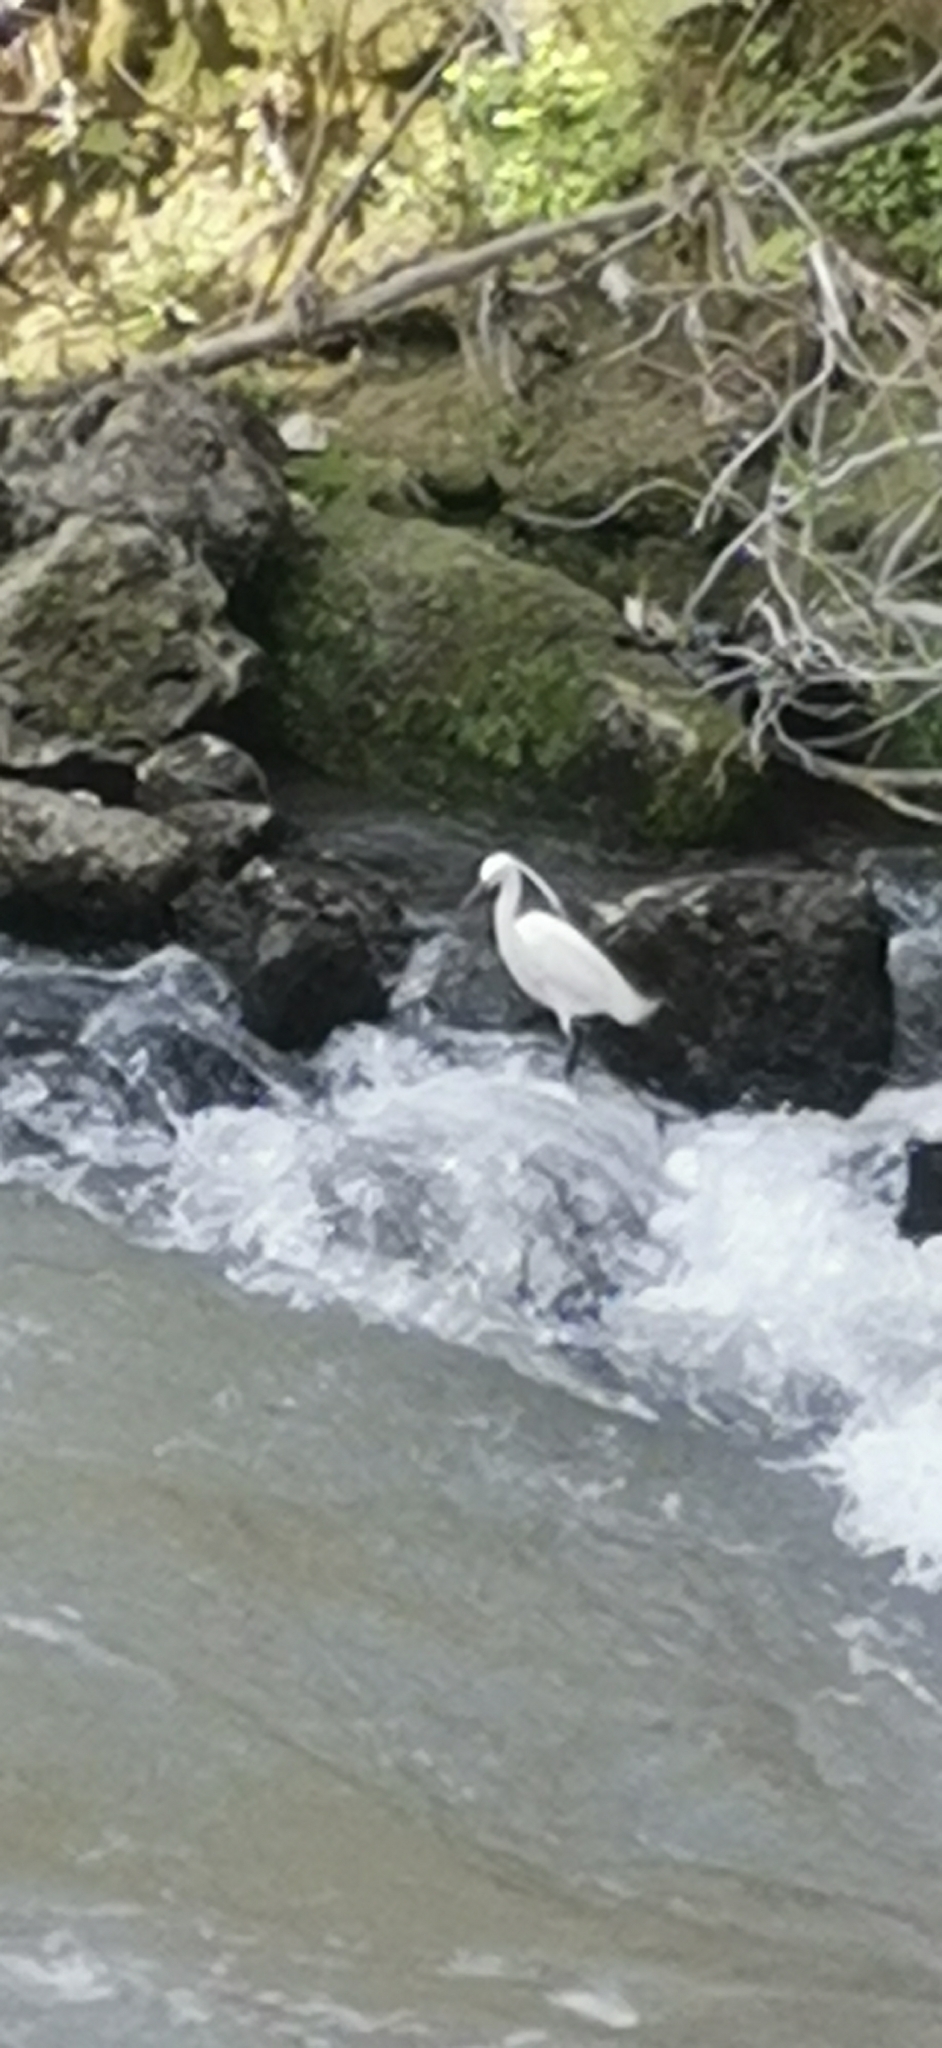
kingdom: Animalia
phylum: Chordata
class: Aves
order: Pelecaniformes
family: Ardeidae
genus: Egretta
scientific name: Egretta garzetta
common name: Little egret
